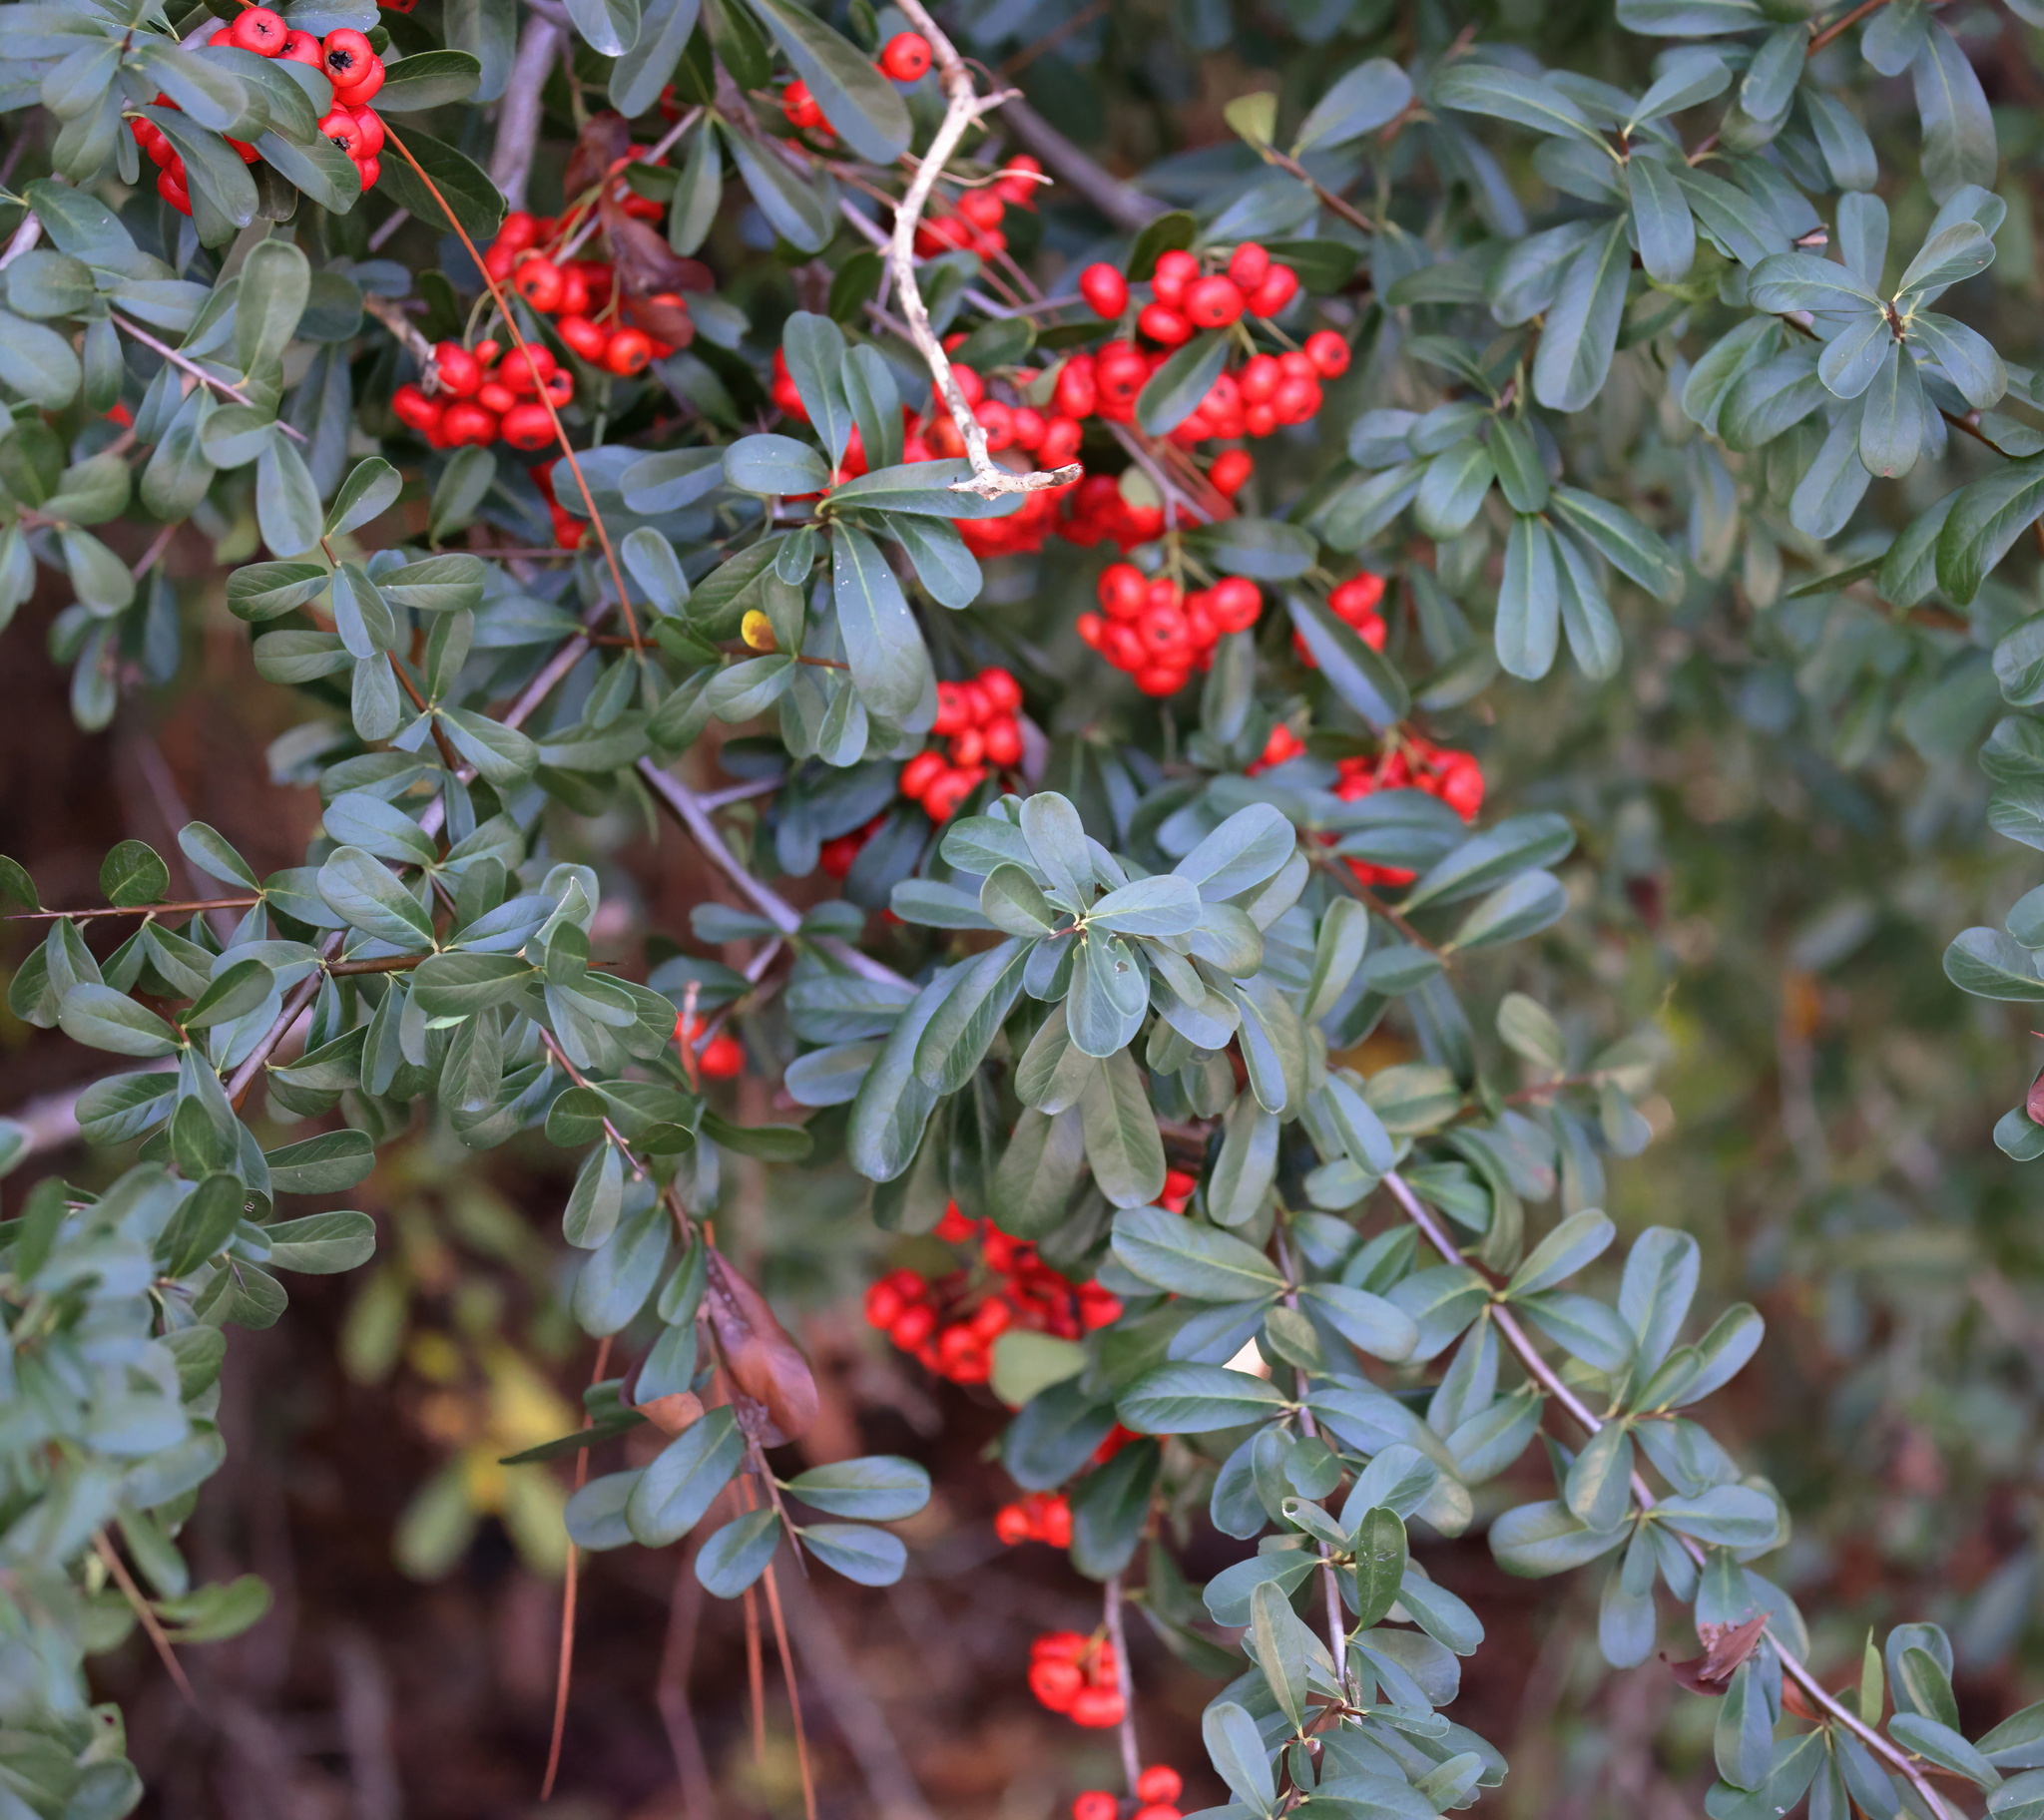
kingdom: Plantae
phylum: Tracheophyta
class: Magnoliopsida
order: Rosales
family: Rosaceae
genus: Pyracantha
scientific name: Pyracantha coccinea
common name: Firethorn
